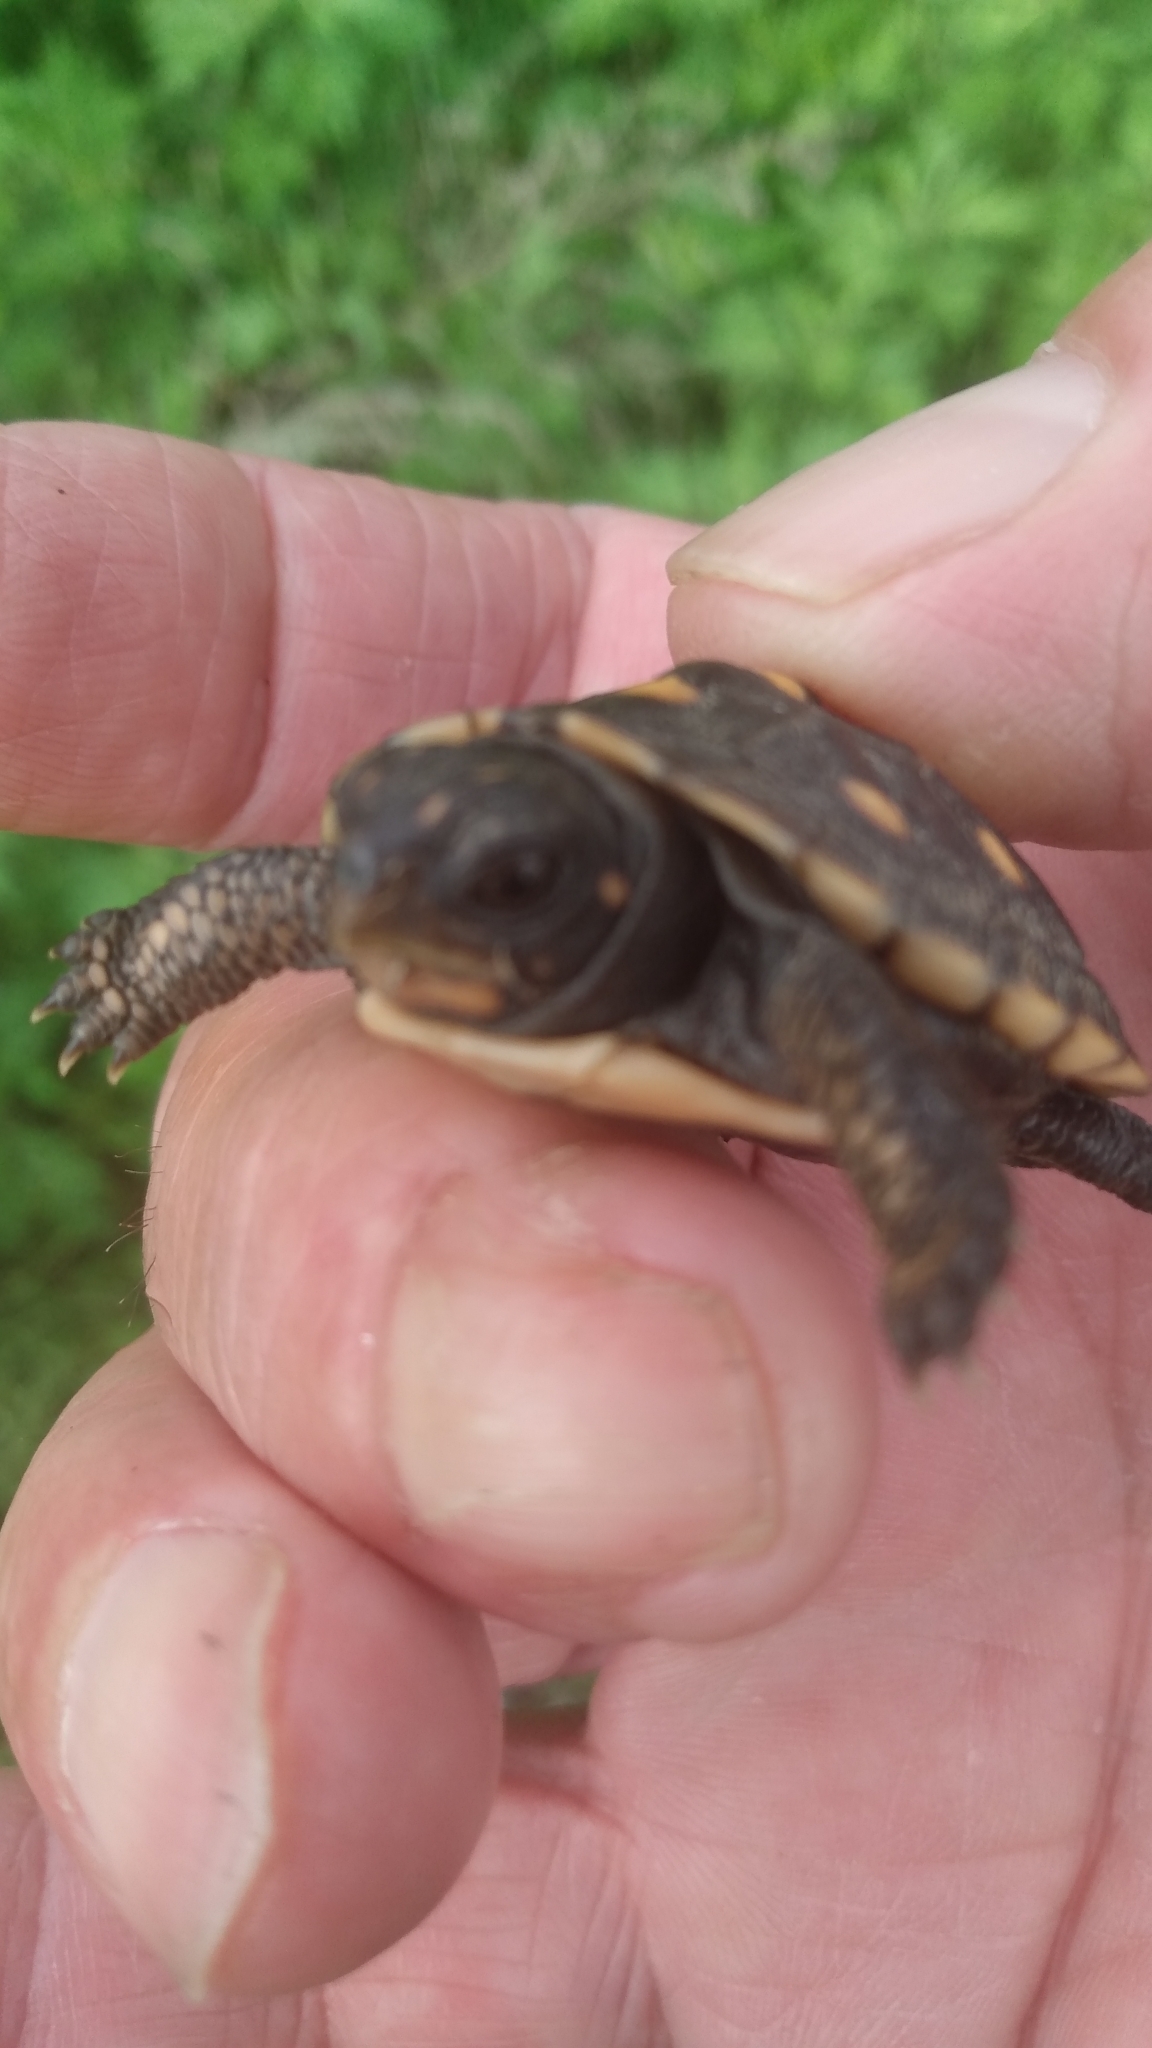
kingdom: Animalia
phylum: Chordata
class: Testudines
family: Emydidae
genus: Terrapene
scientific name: Terrapene carolina
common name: Common box turtle
